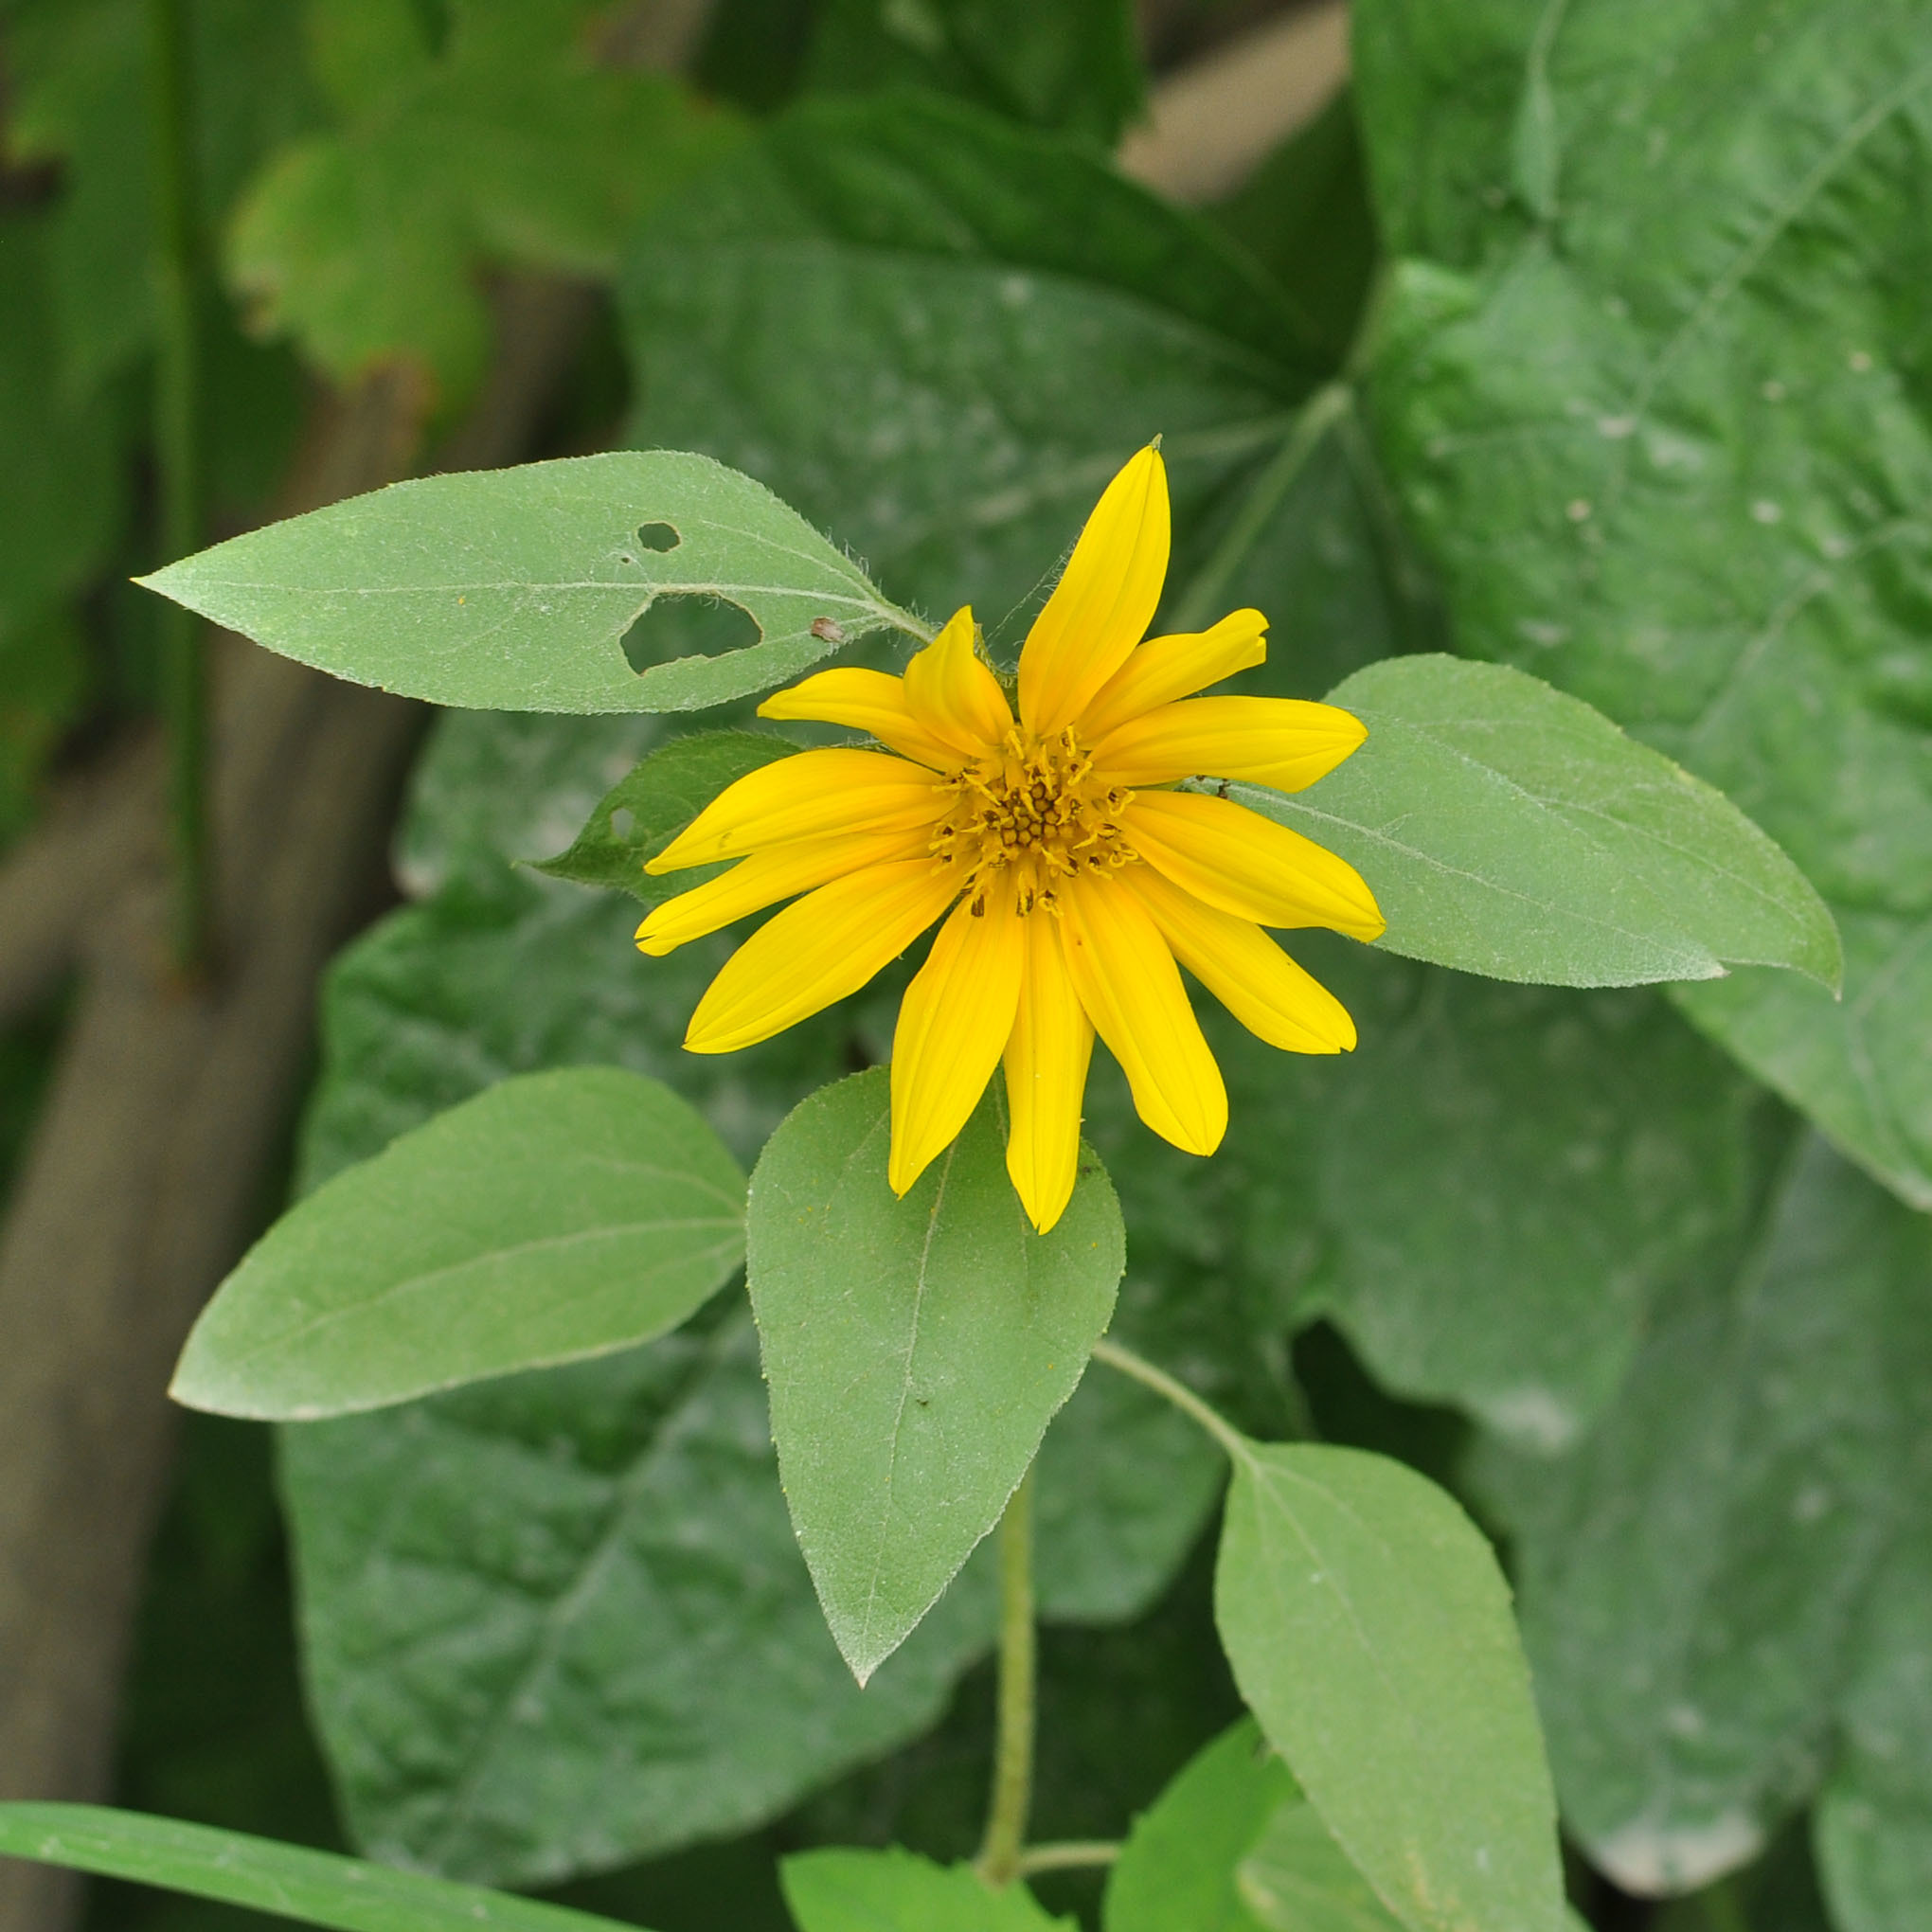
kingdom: Plantae
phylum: Tracheophyta
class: Magnoliopsida
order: Asterales
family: Asteraceae
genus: Helianthus
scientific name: Helianthus annuus
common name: Sunflower
